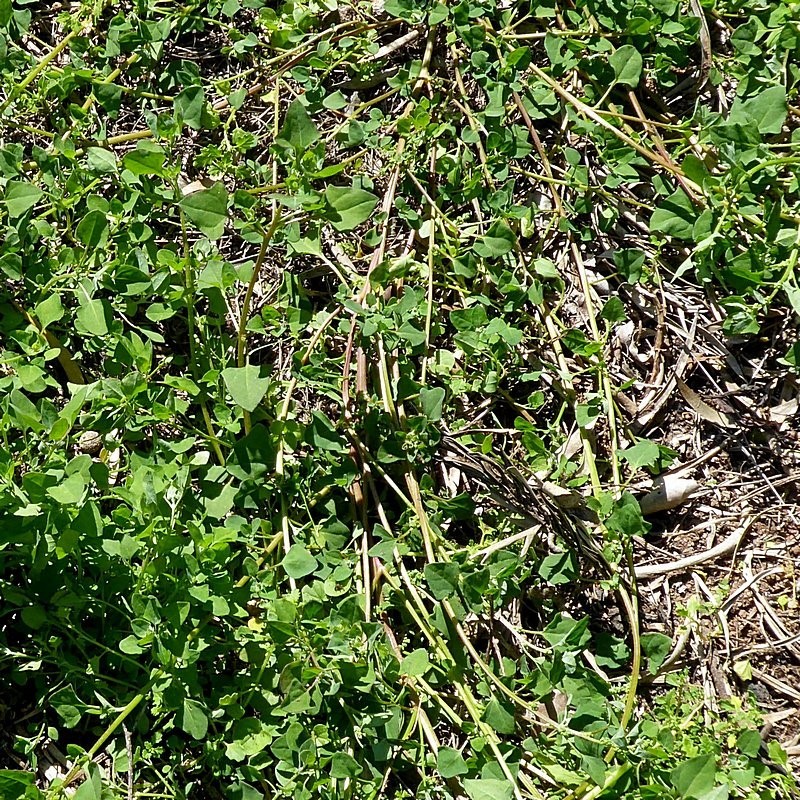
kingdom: Plantae
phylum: Tracheophyta
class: Magnoliopsida
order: Caryophyllales
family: Amaranthaceae
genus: Chenopodium
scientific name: Chenopodium trigonon
